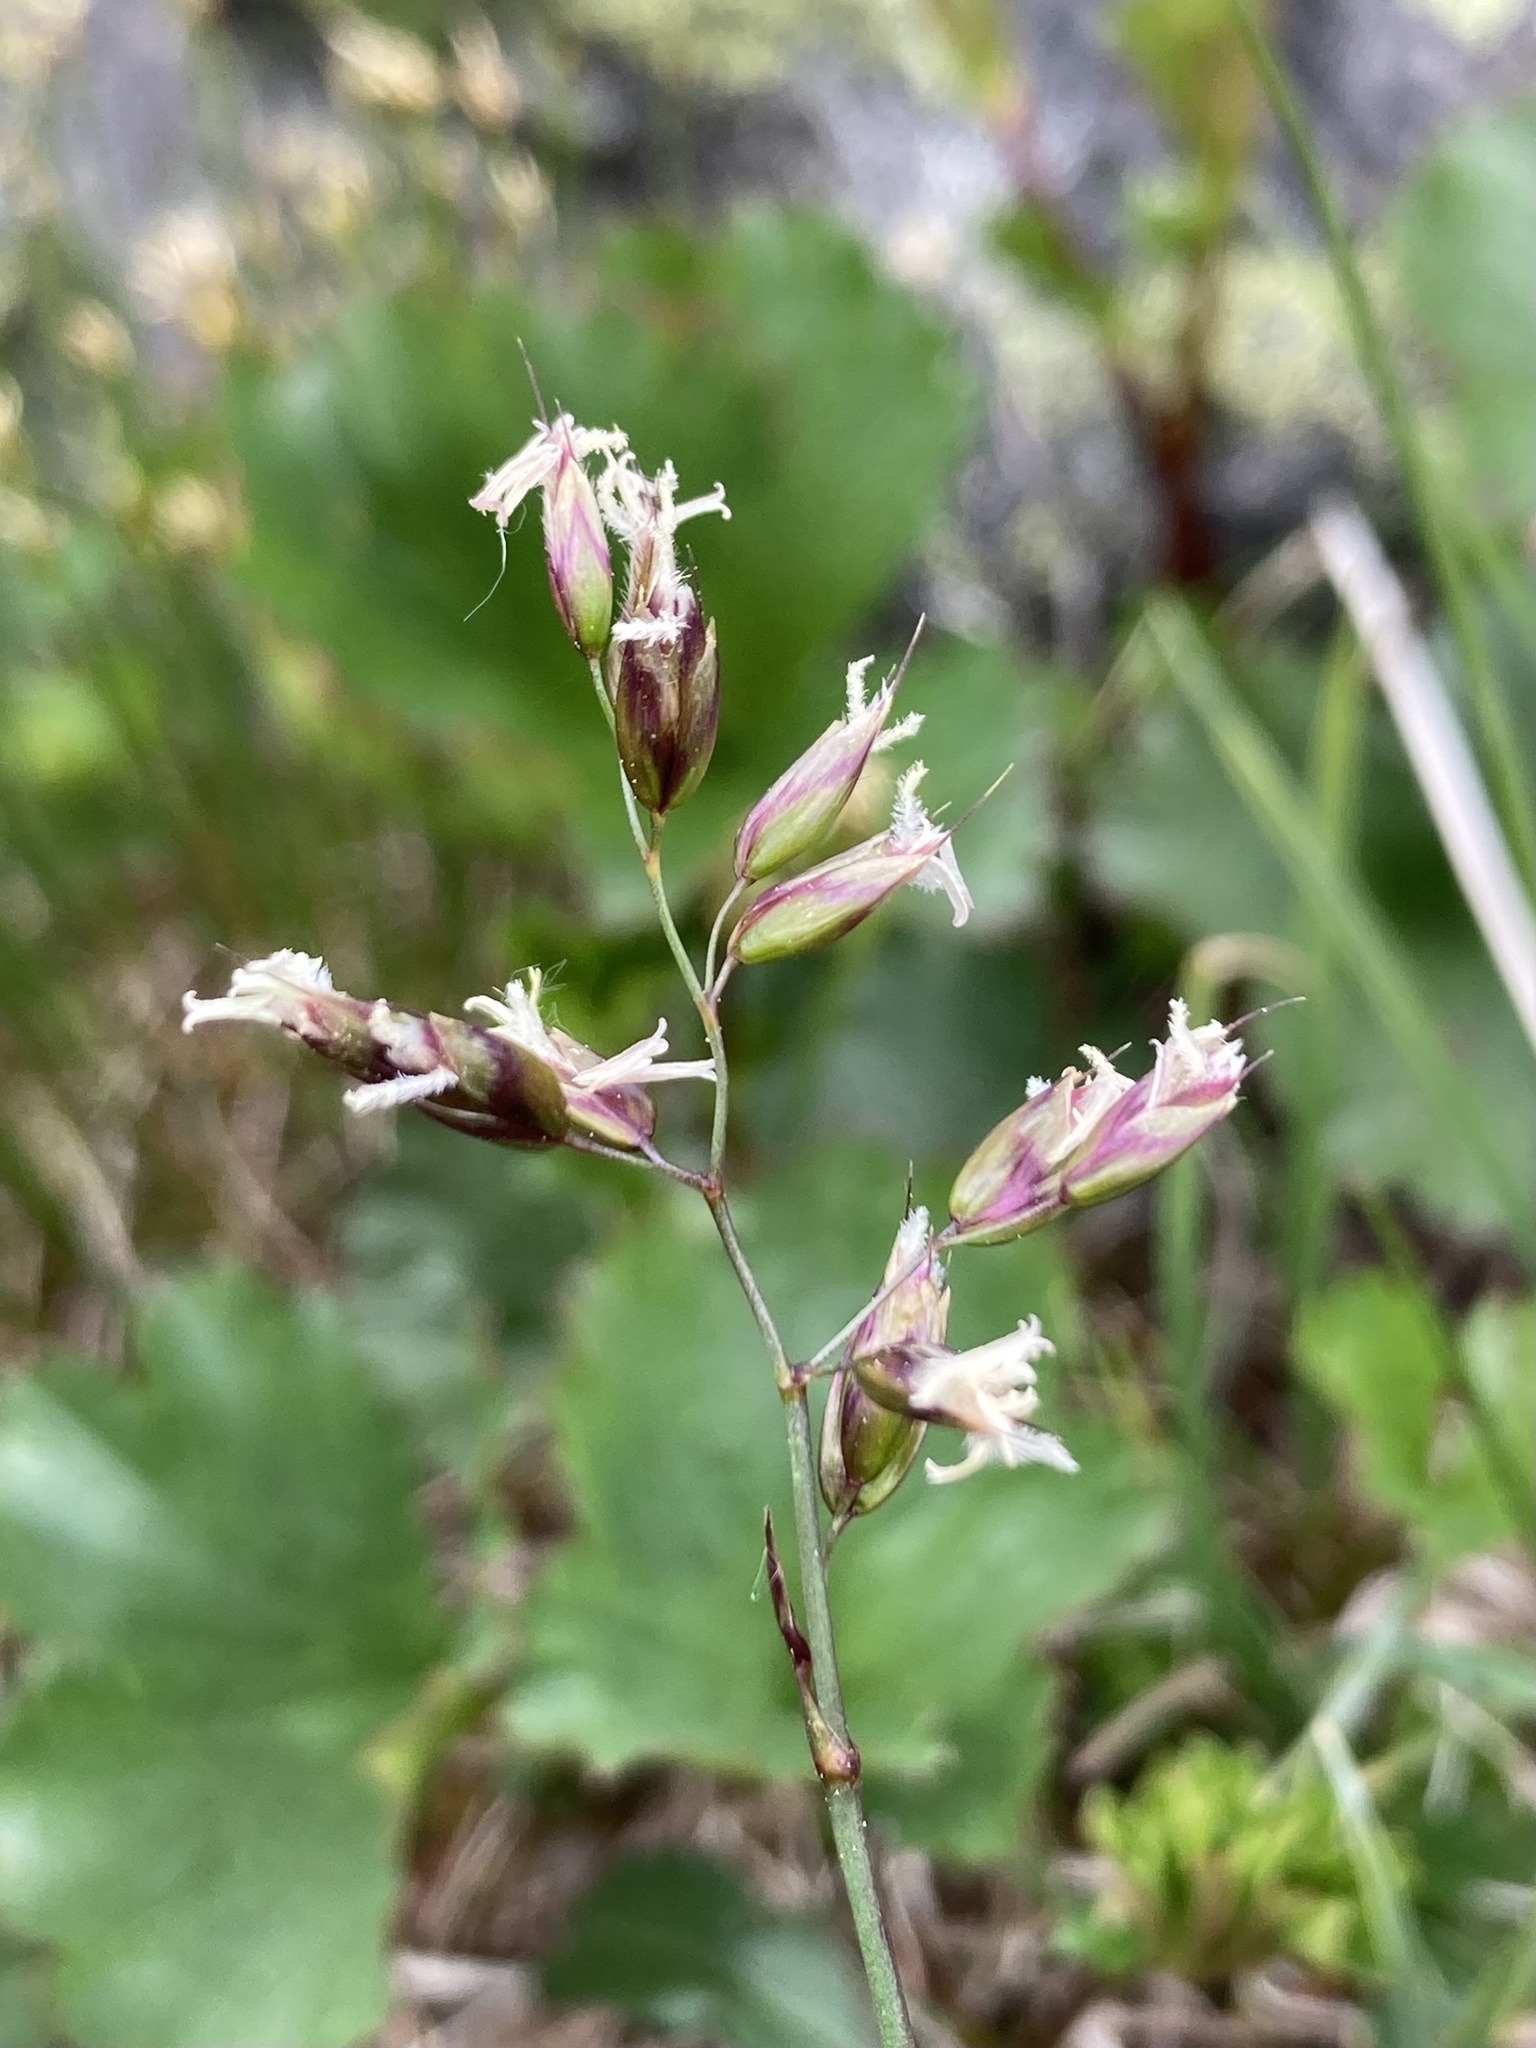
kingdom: Plantae
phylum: Tracheophyta
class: Liliopsida
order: Poales
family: Poaceae
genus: Anthoxanthum
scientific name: Anthoxanthum monticola
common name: Alpine sweetgrass
